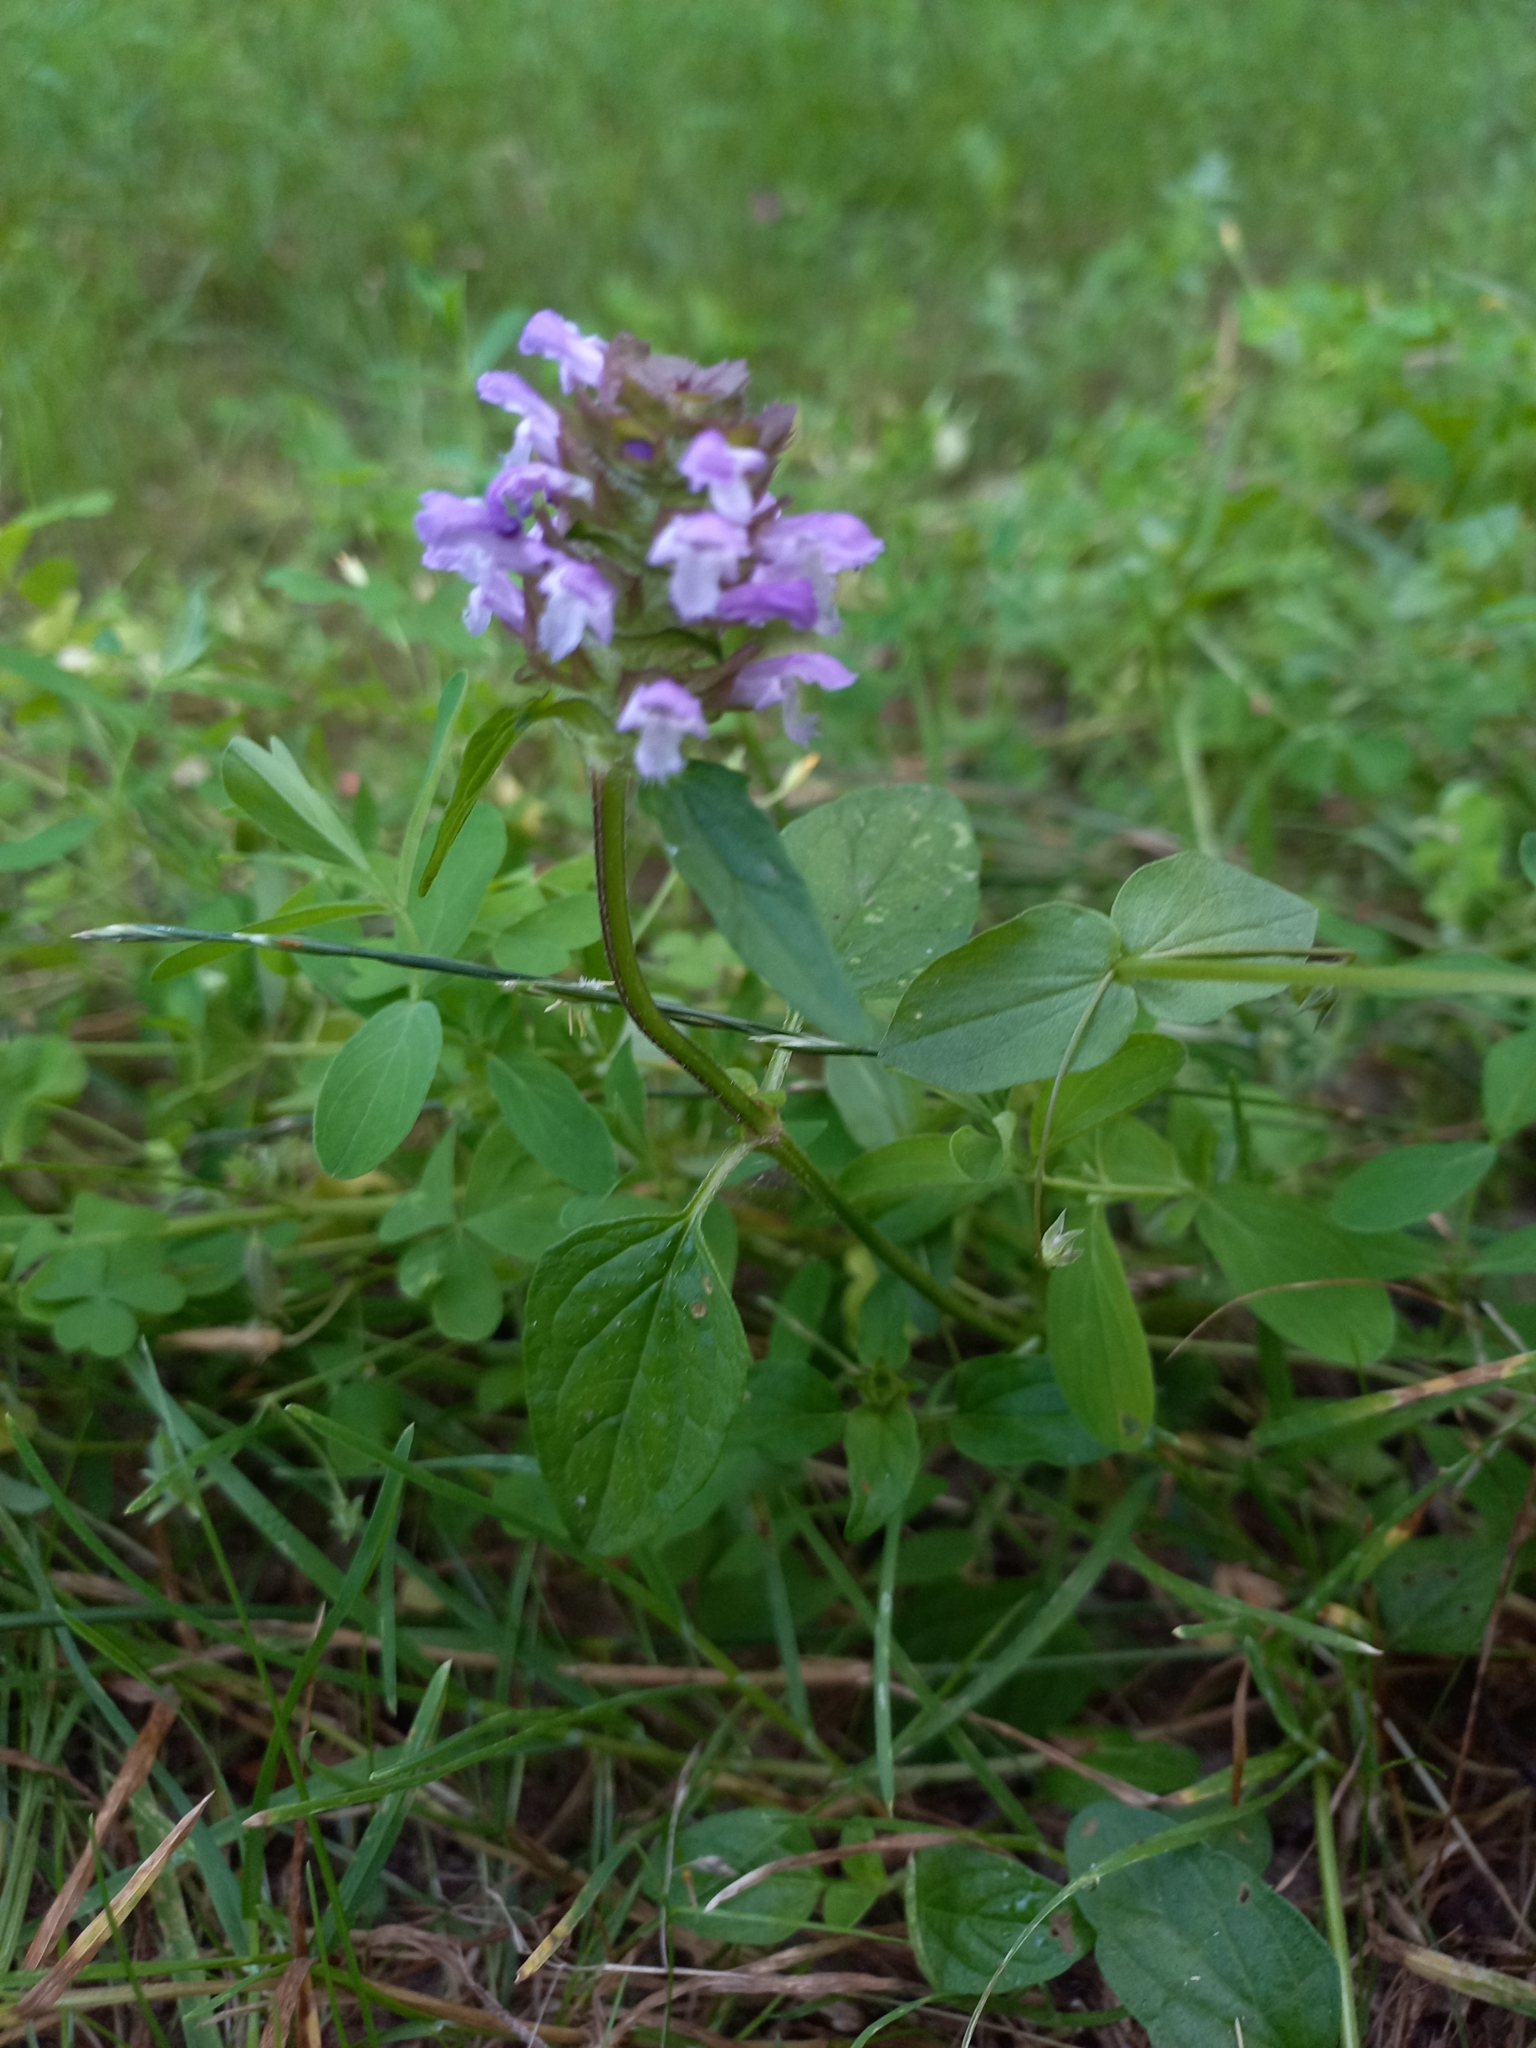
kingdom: Plantae
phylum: Tracheophyta
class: Magnoliopsida
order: Lamiales
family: Lamiaceae
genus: Prunella
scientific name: Prunella vulgaris
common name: Heal-all
